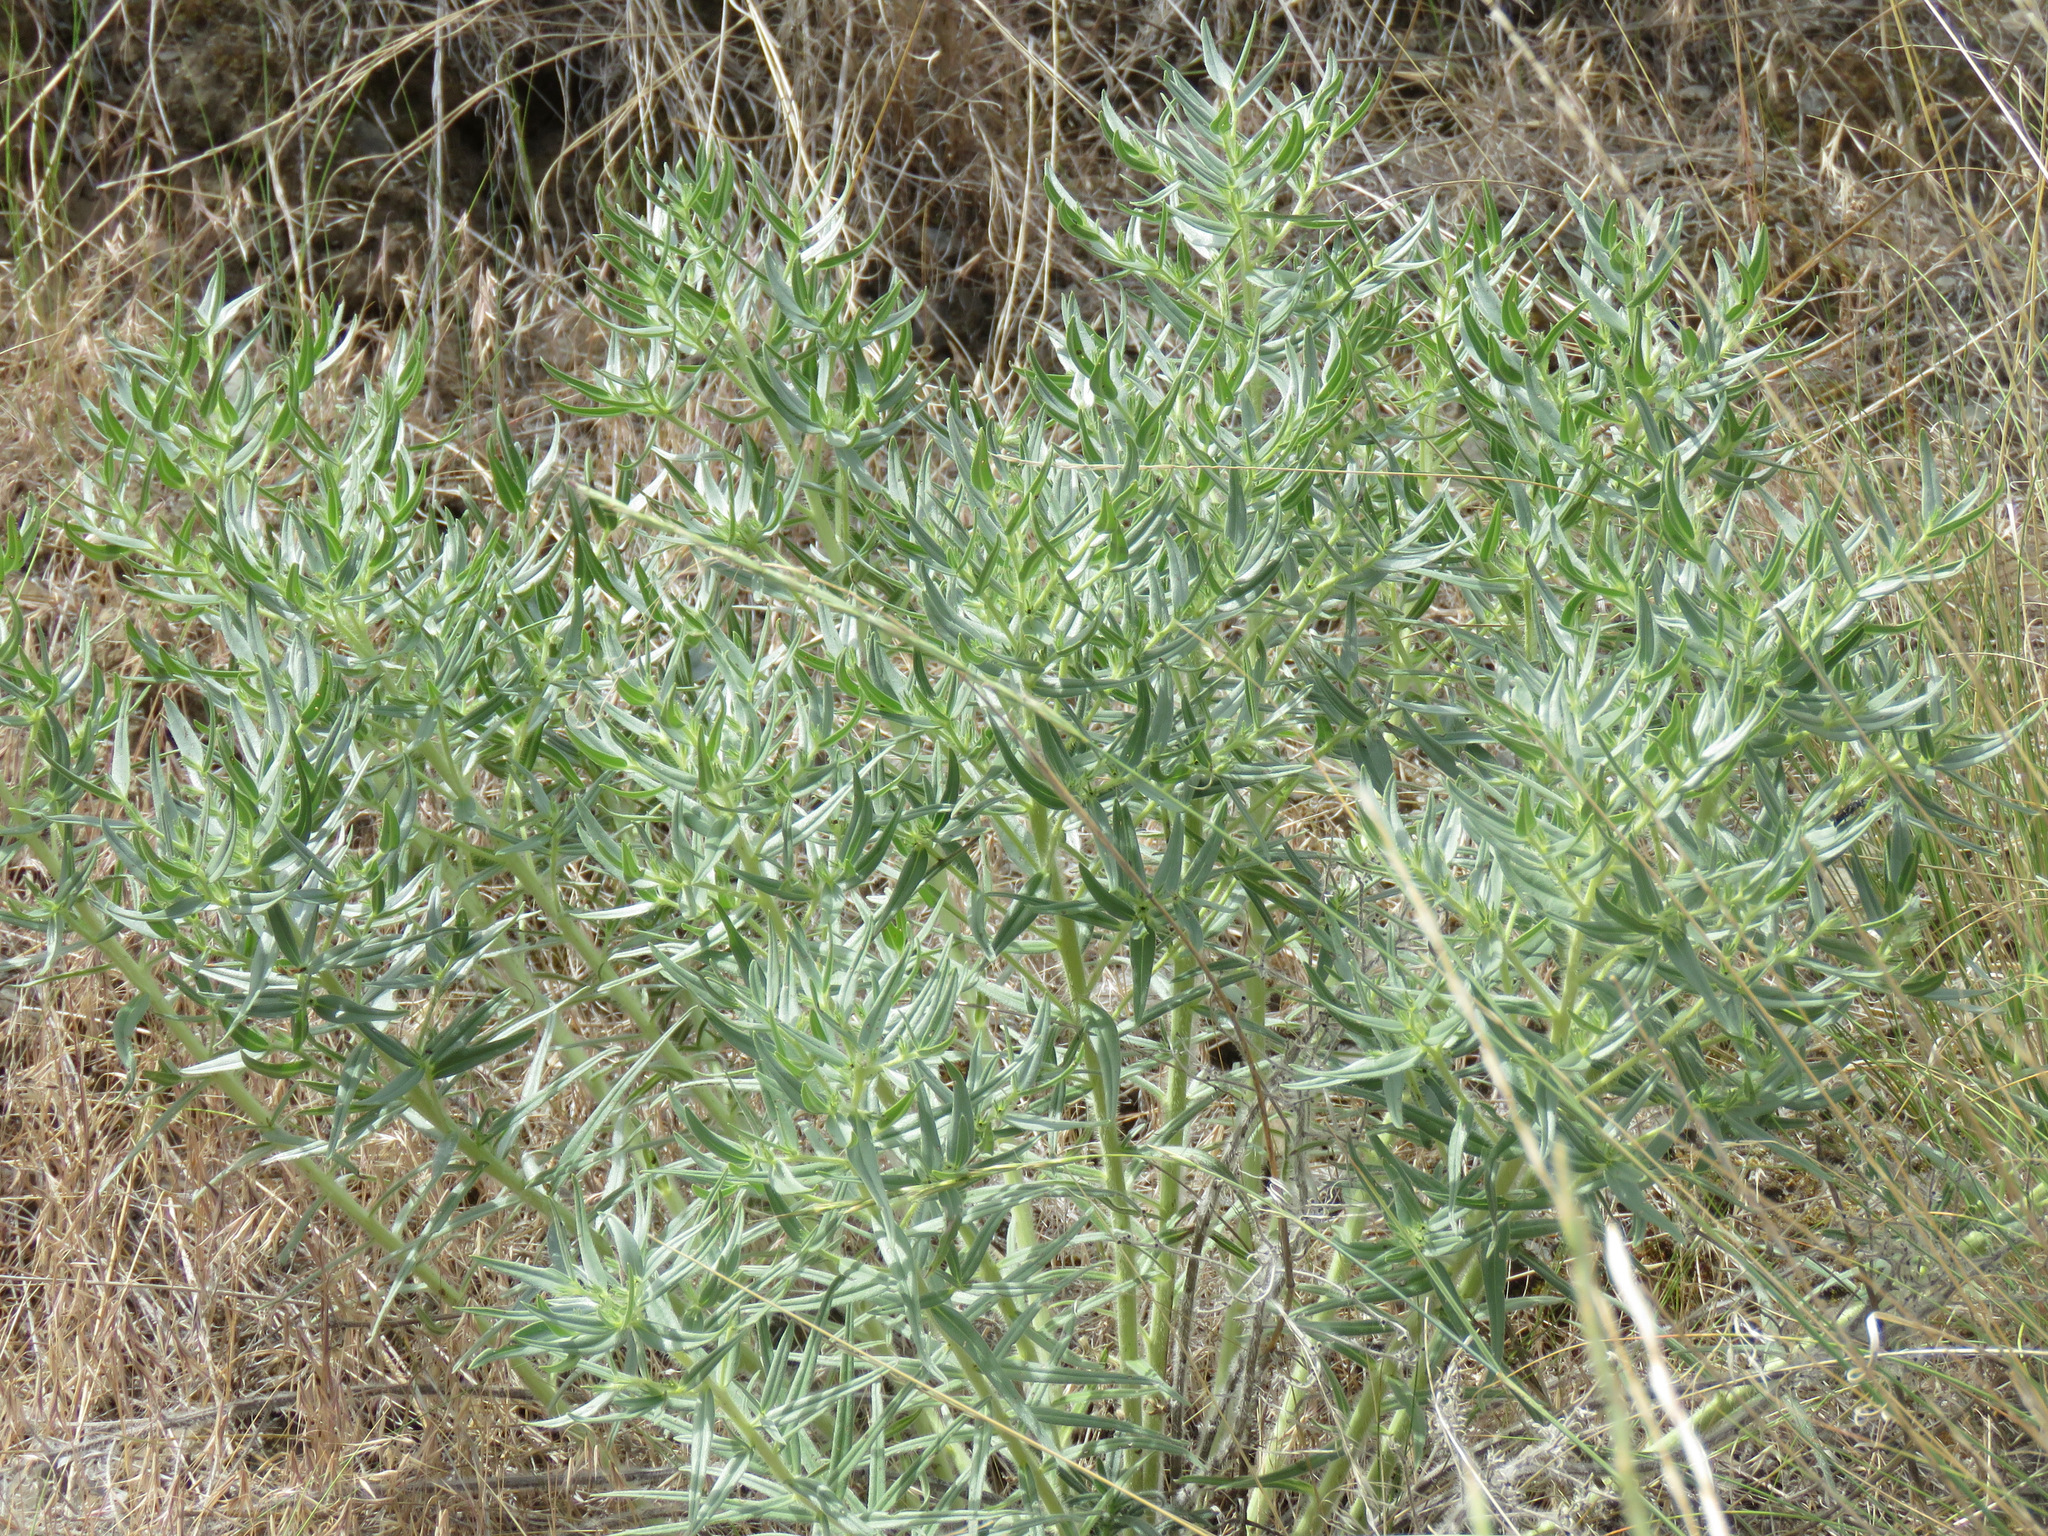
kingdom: Plantae
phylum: Tracheophyta
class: Magnoliopsida
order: Boraginales
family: Boraginaceae
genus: Lithospermum
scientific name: Lithospermum ruderale
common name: Western gromwell
